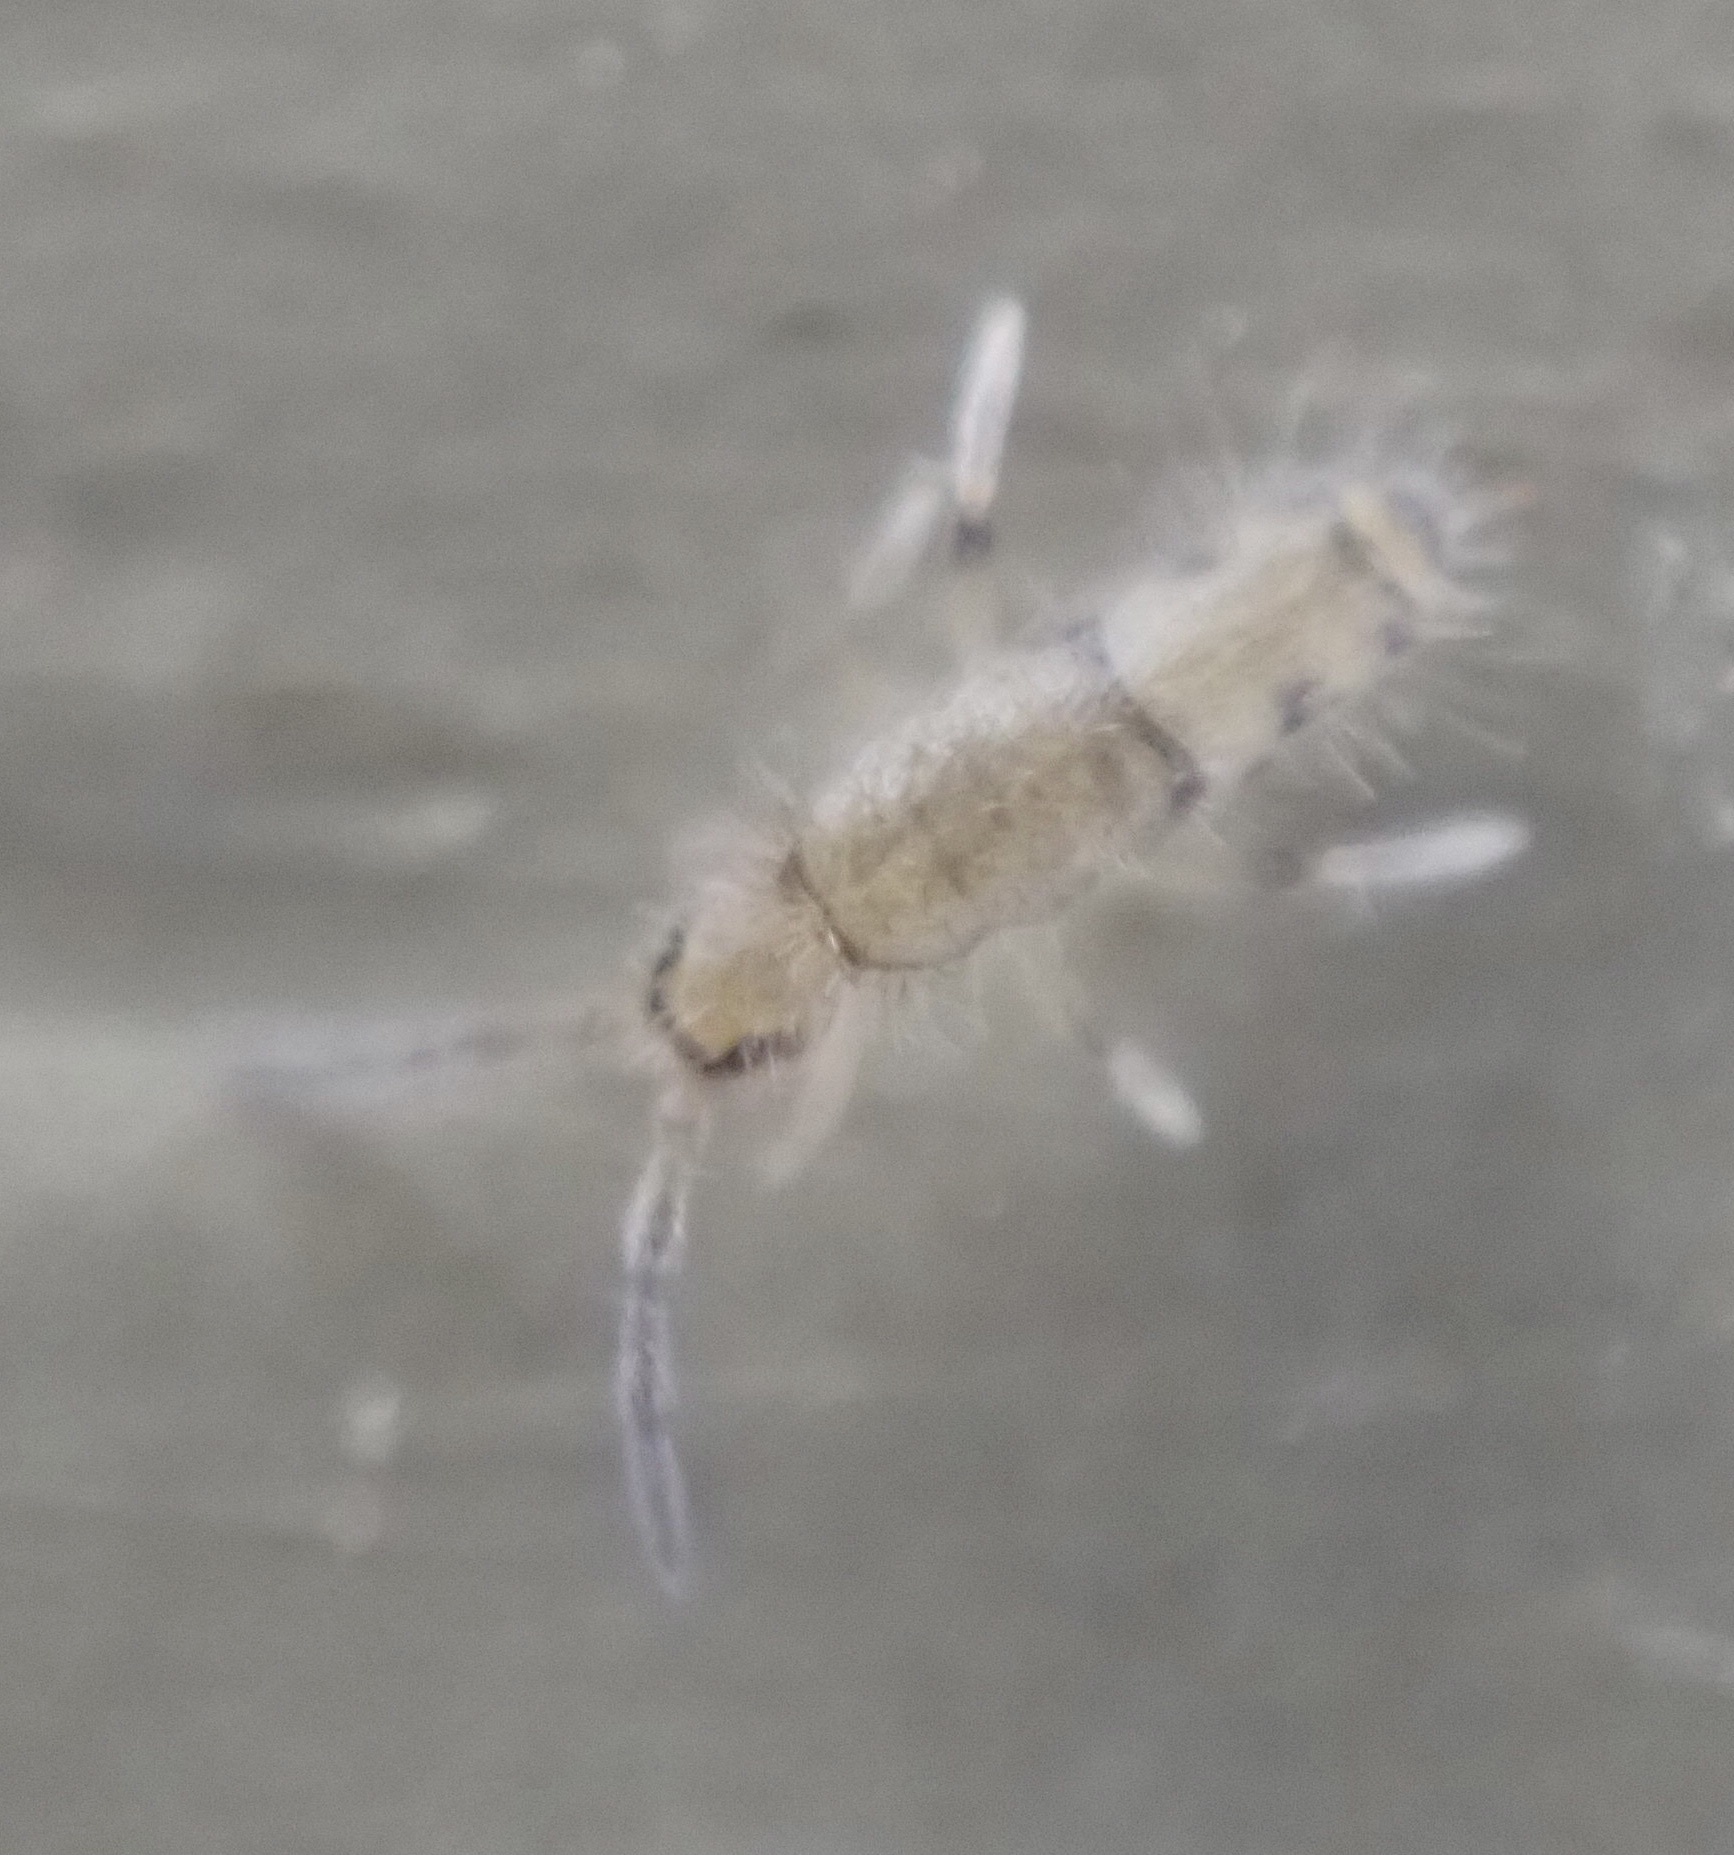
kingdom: Animalia
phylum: Arthropoda
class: Collembola
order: Entomobryomorpha
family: Entomobryidae
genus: Willowsia
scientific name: Willowsia nigromaculata
